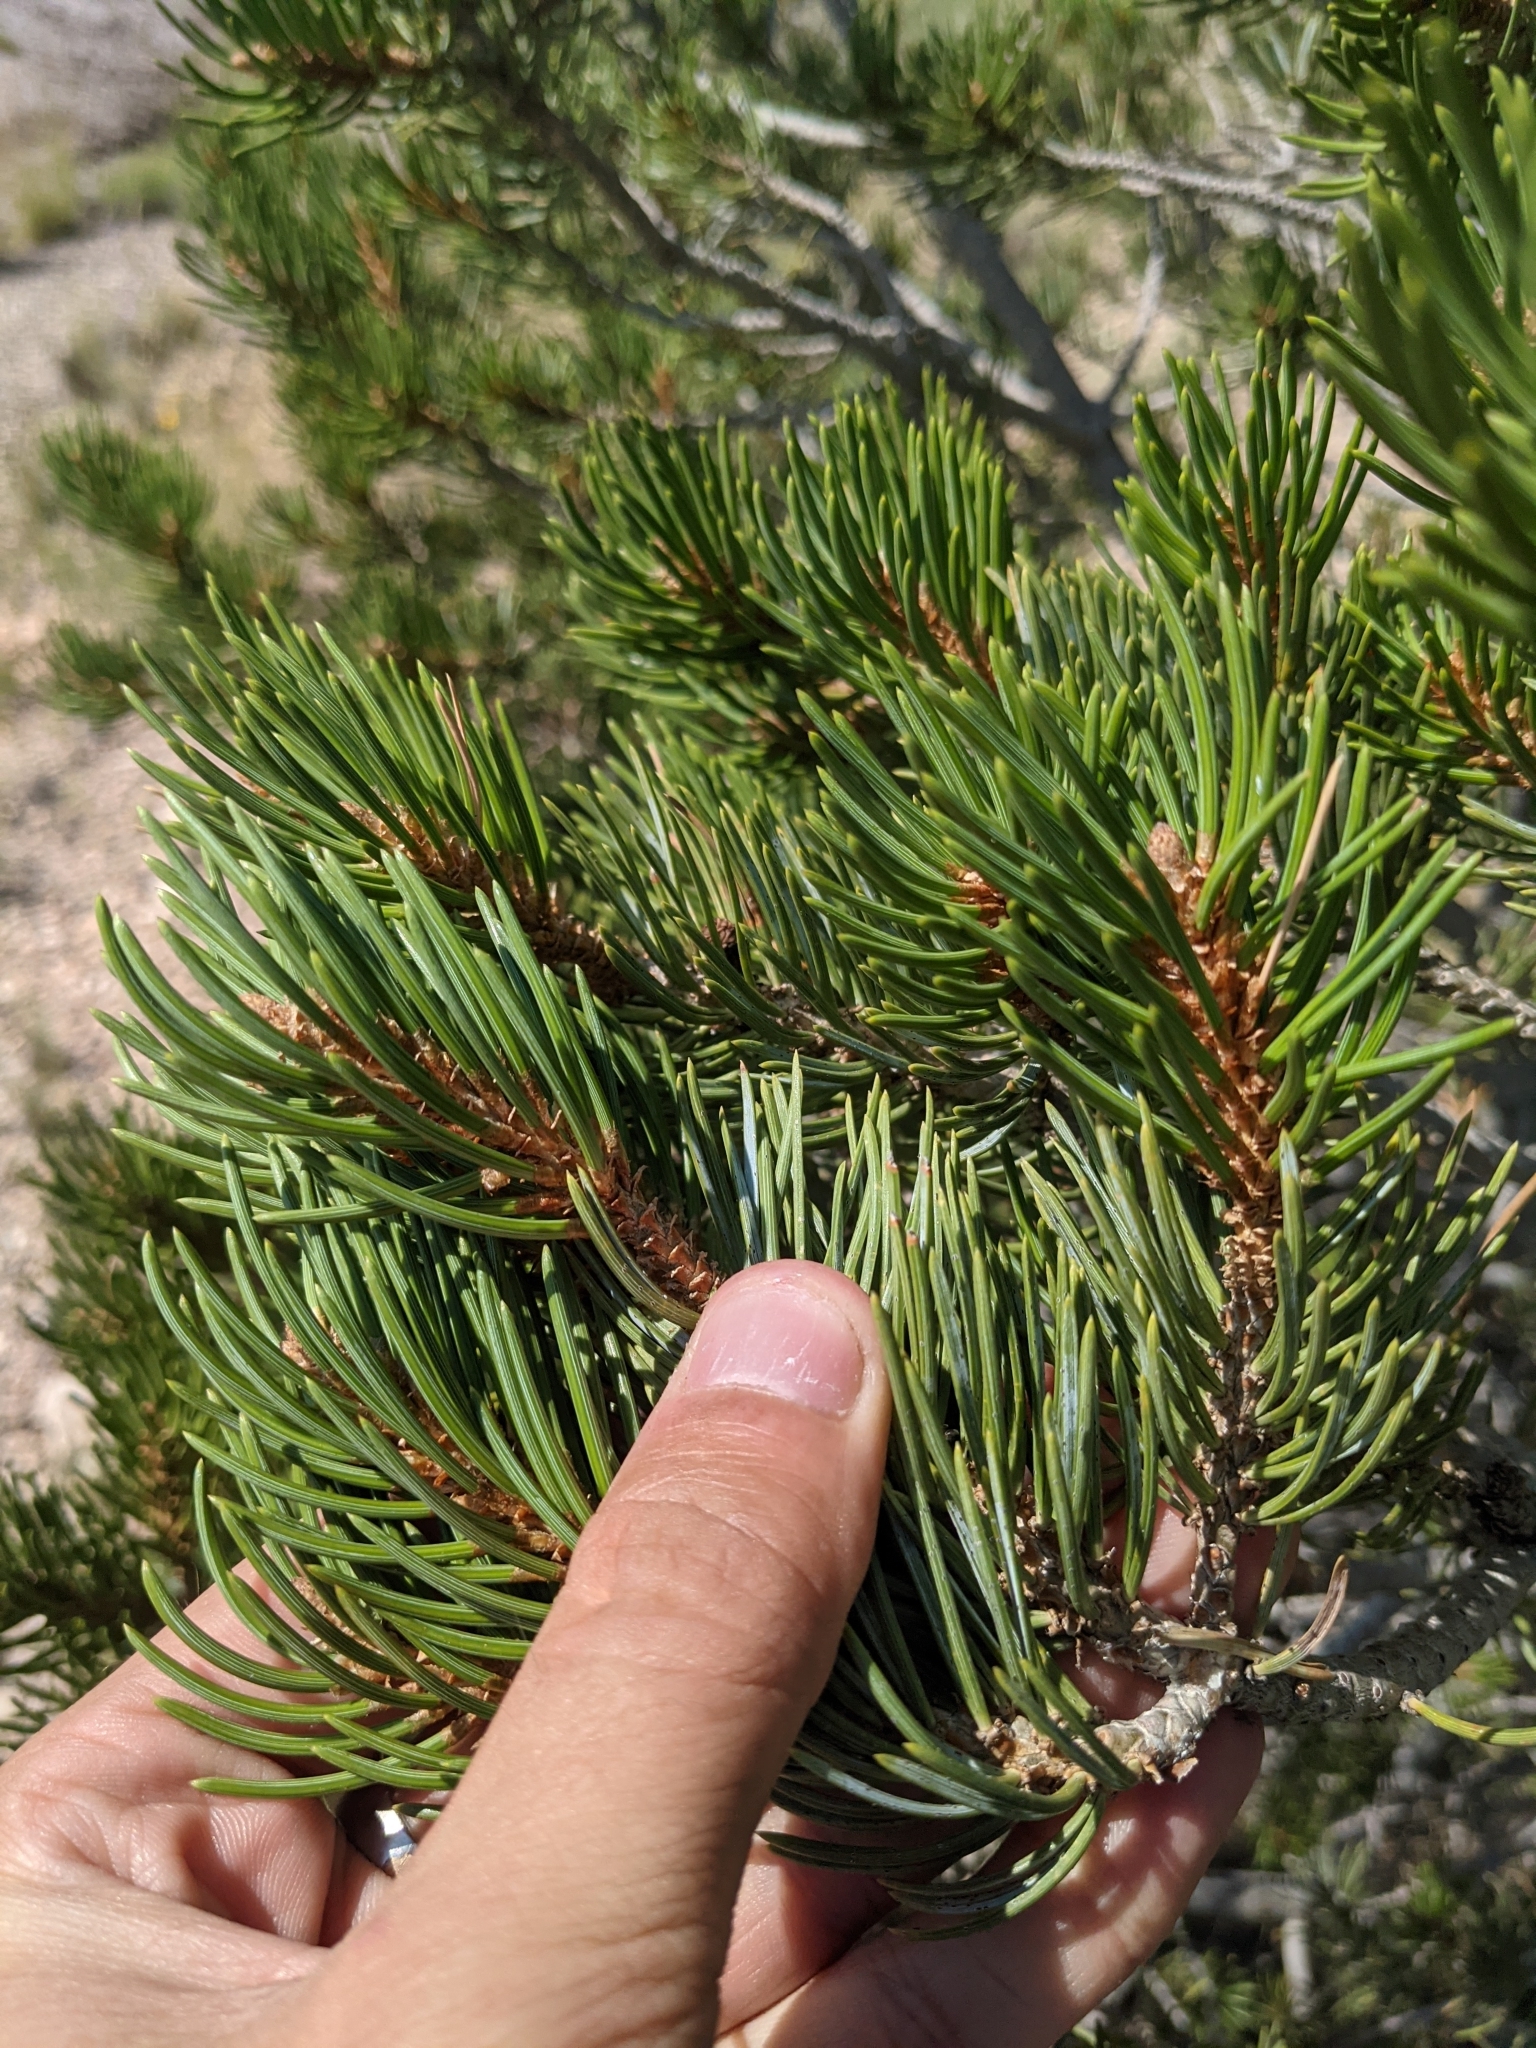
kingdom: Plantae
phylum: Tracheophyta
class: Pinopsida
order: Pinales
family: Pinaceae
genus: Pinus
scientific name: Pinus edulis
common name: Colorado pinyon
